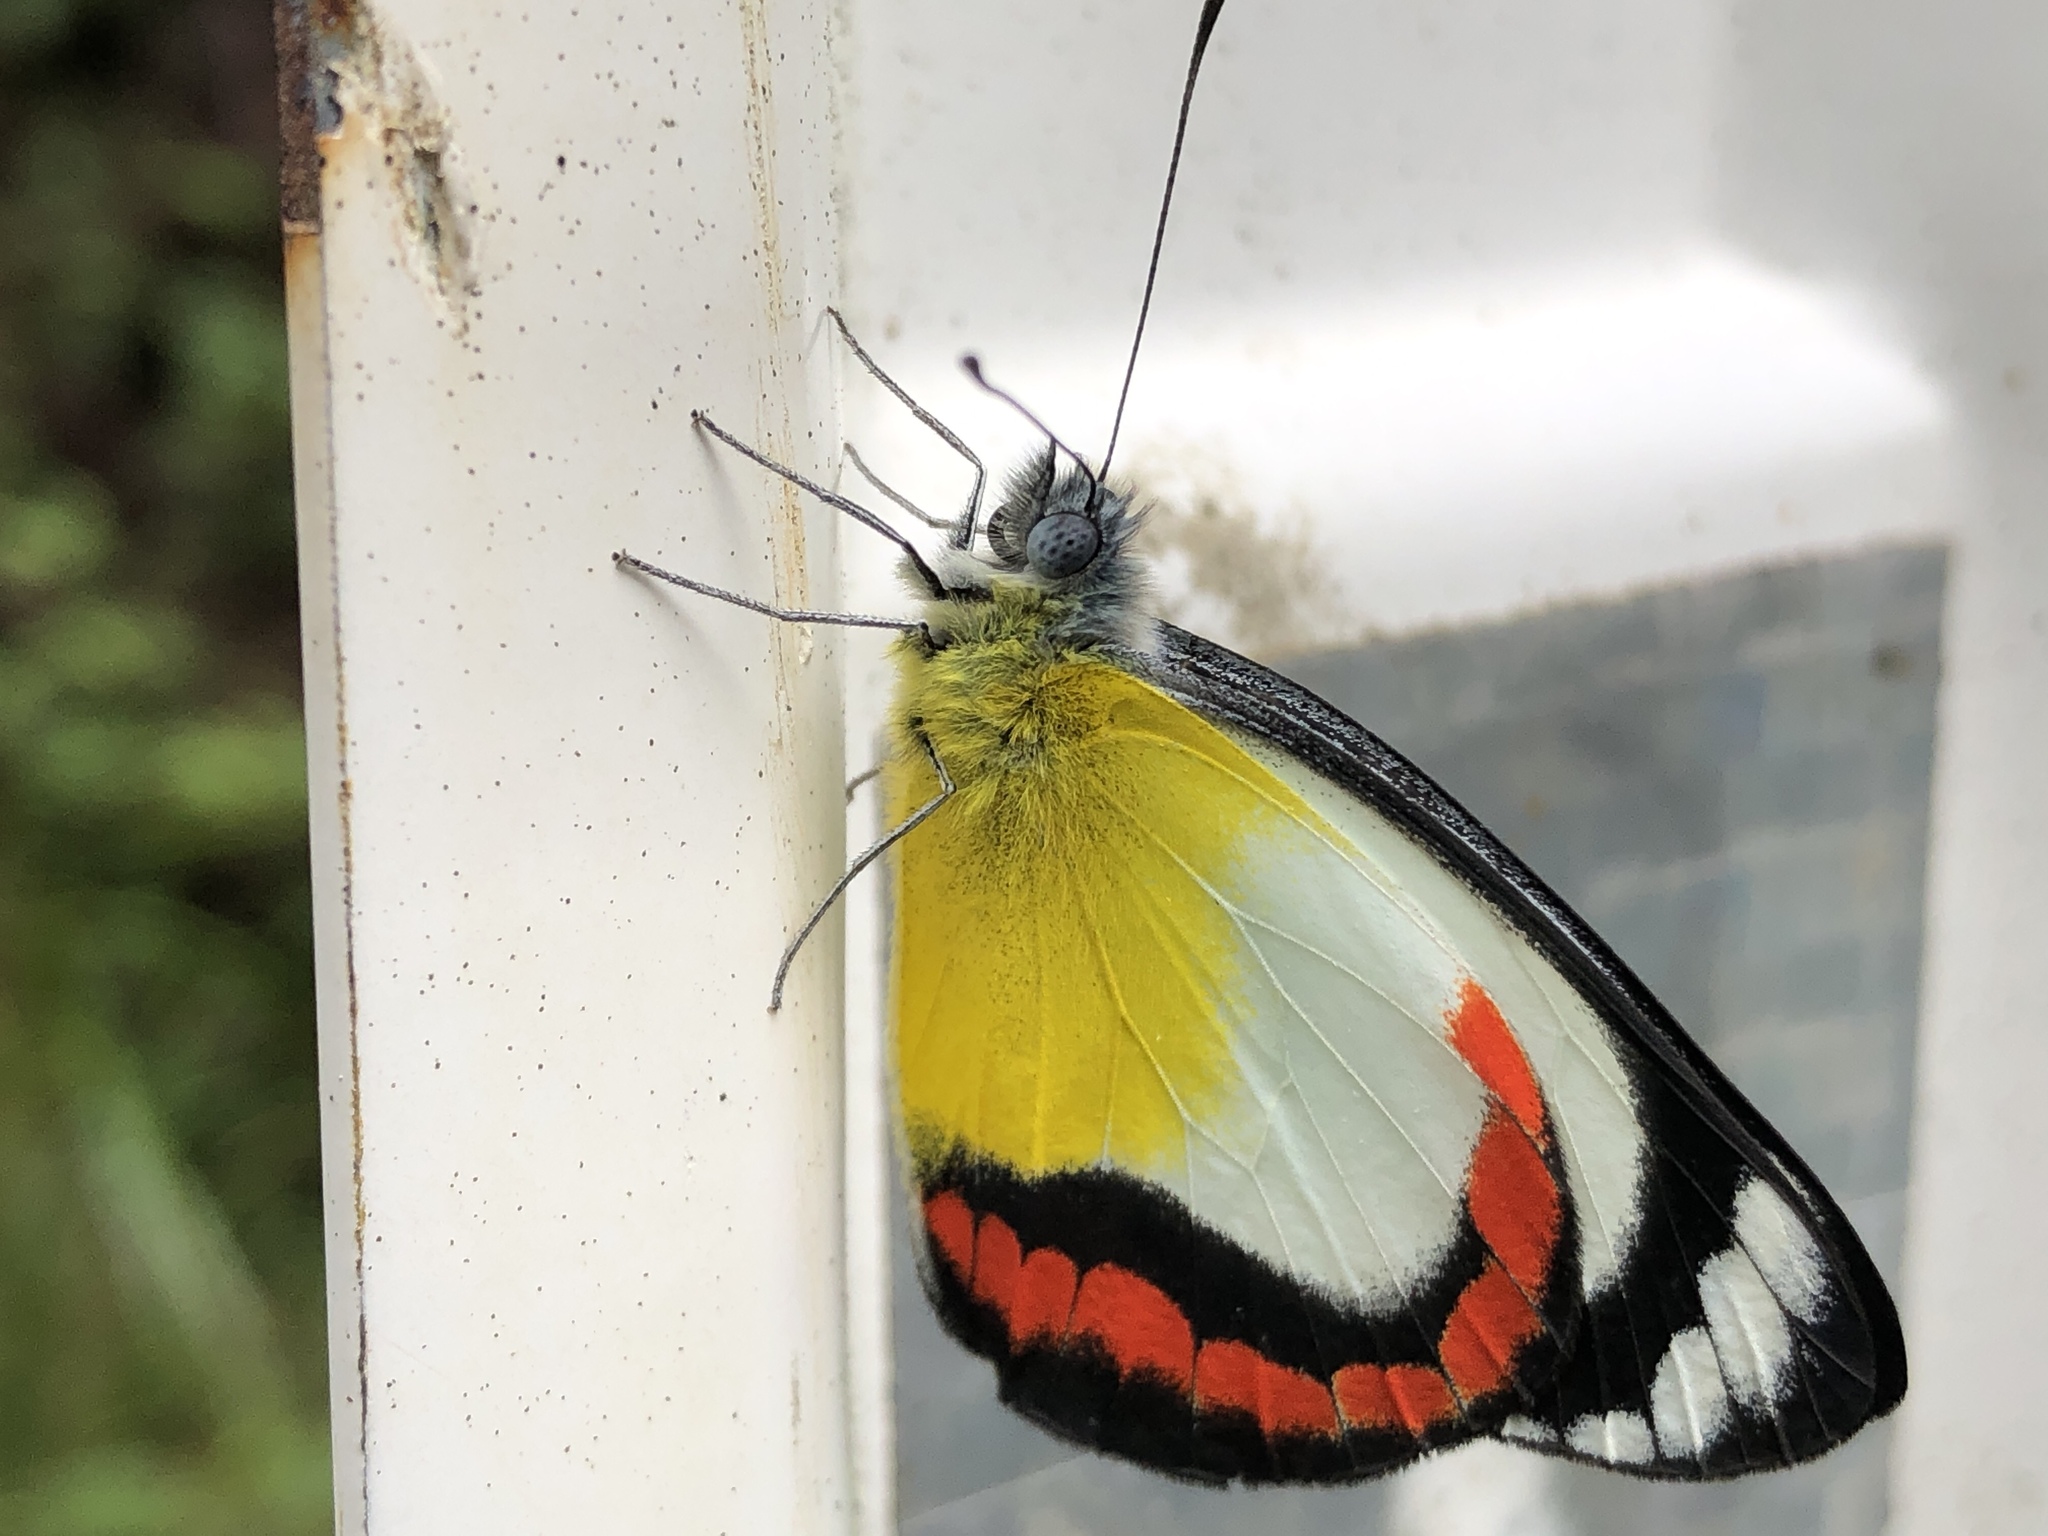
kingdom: Animalia
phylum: Arthropoda
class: Insecta
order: Lepidoptera
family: Pieridae
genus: Delias
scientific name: Delias mysis
